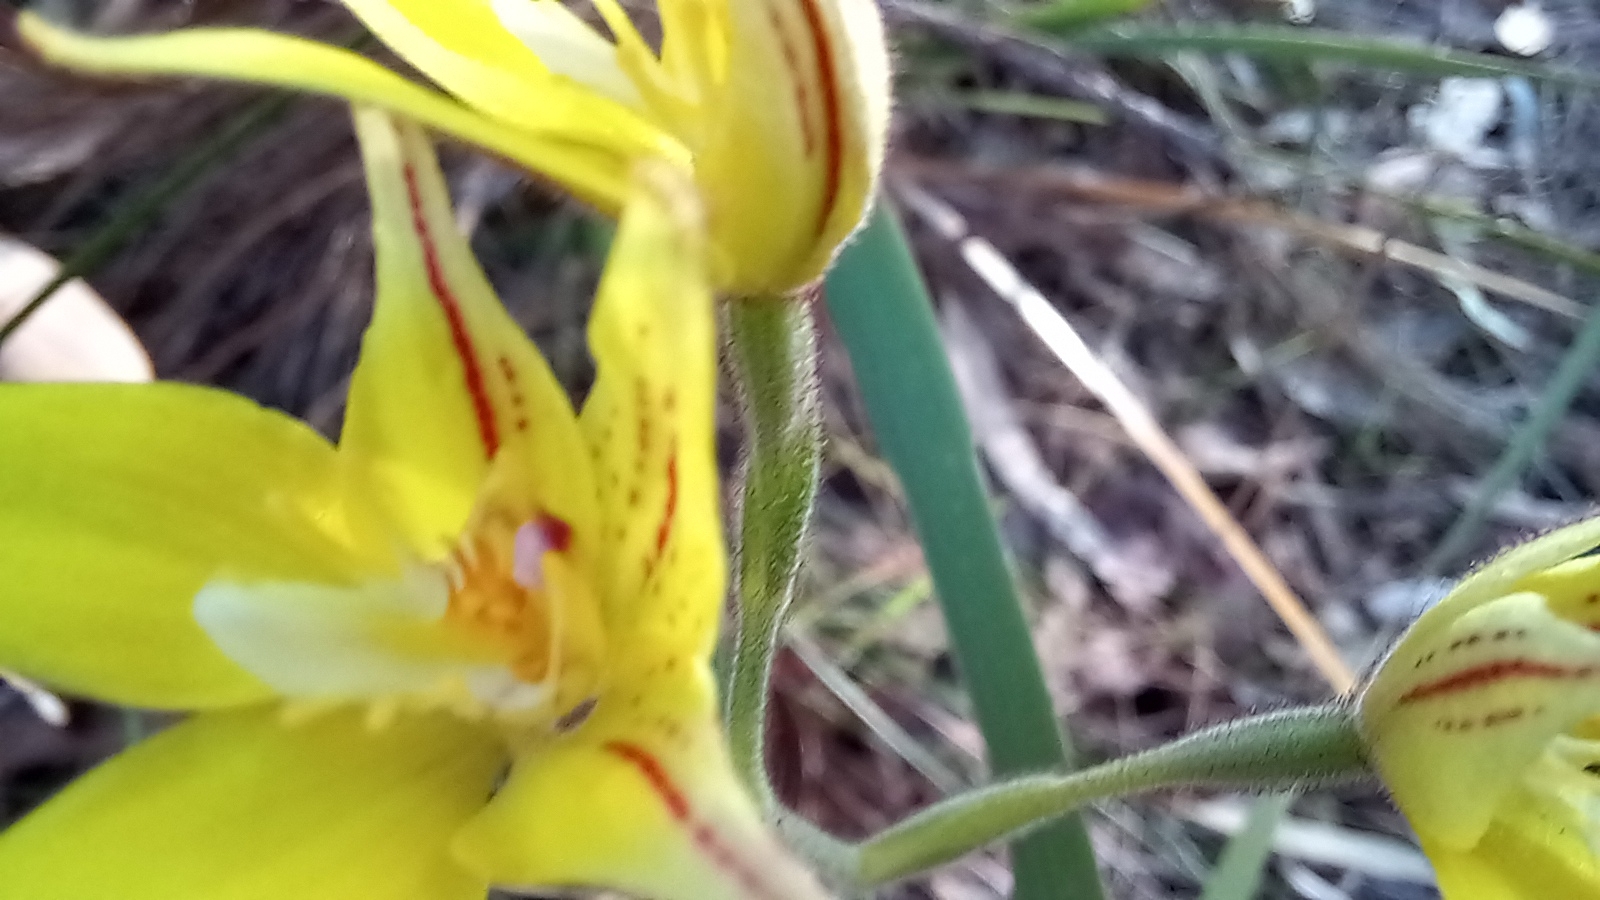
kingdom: Plantae
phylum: Tracheophyta
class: Liliopsida
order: Asparagales
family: Orchidaceae
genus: Caladenia
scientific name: Caladenia flava
